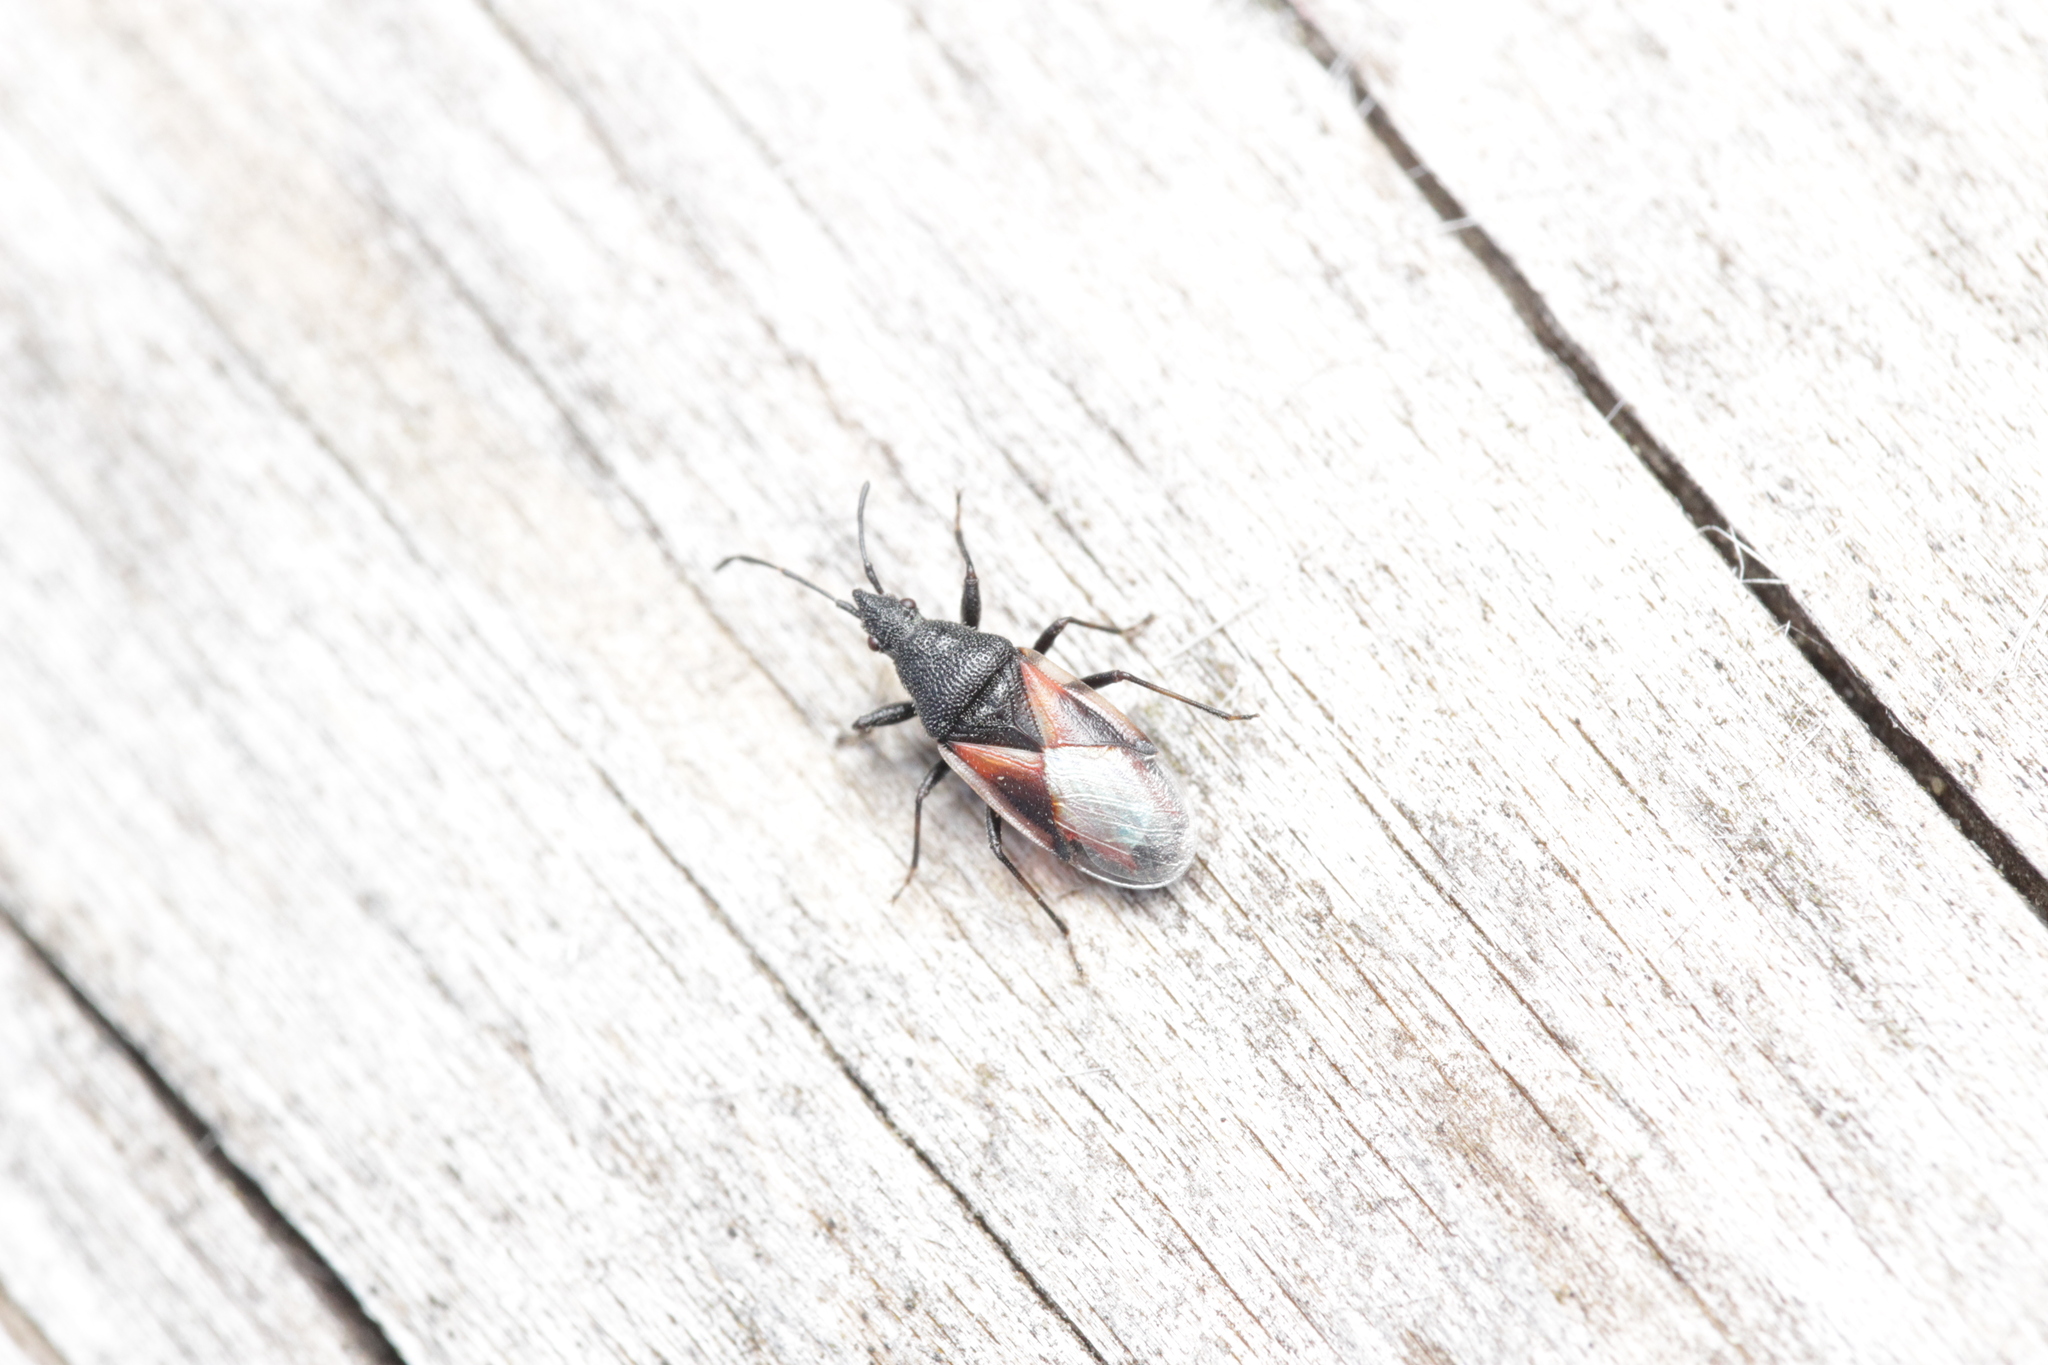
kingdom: Animalia
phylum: Arthropoda
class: Insecta
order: Hemiptera
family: Oxycarenidae
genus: Oxycarenus
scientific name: Oxycarenus lavaterae
